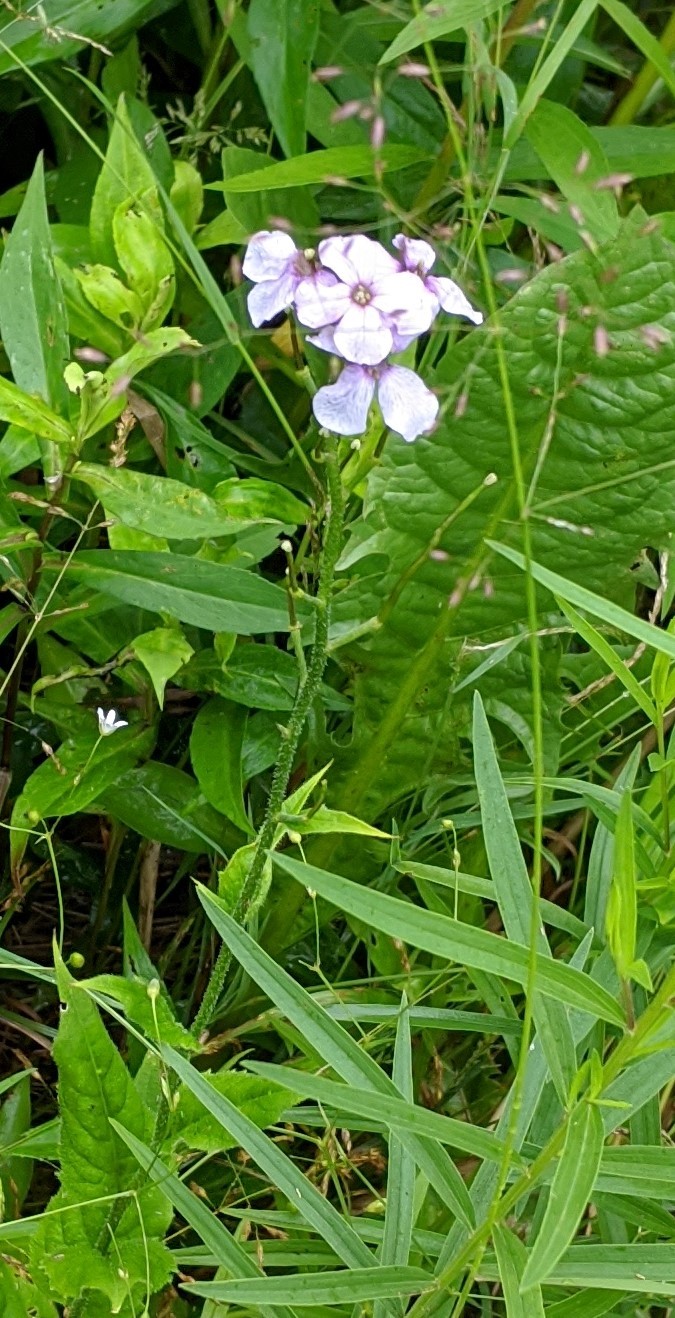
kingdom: Plantae
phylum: Tracheophyta
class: Magnoliopsida
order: Brassicales
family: Brassicaceae
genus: Hesperis
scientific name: Hesperis matronalis
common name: Dame's-violet
